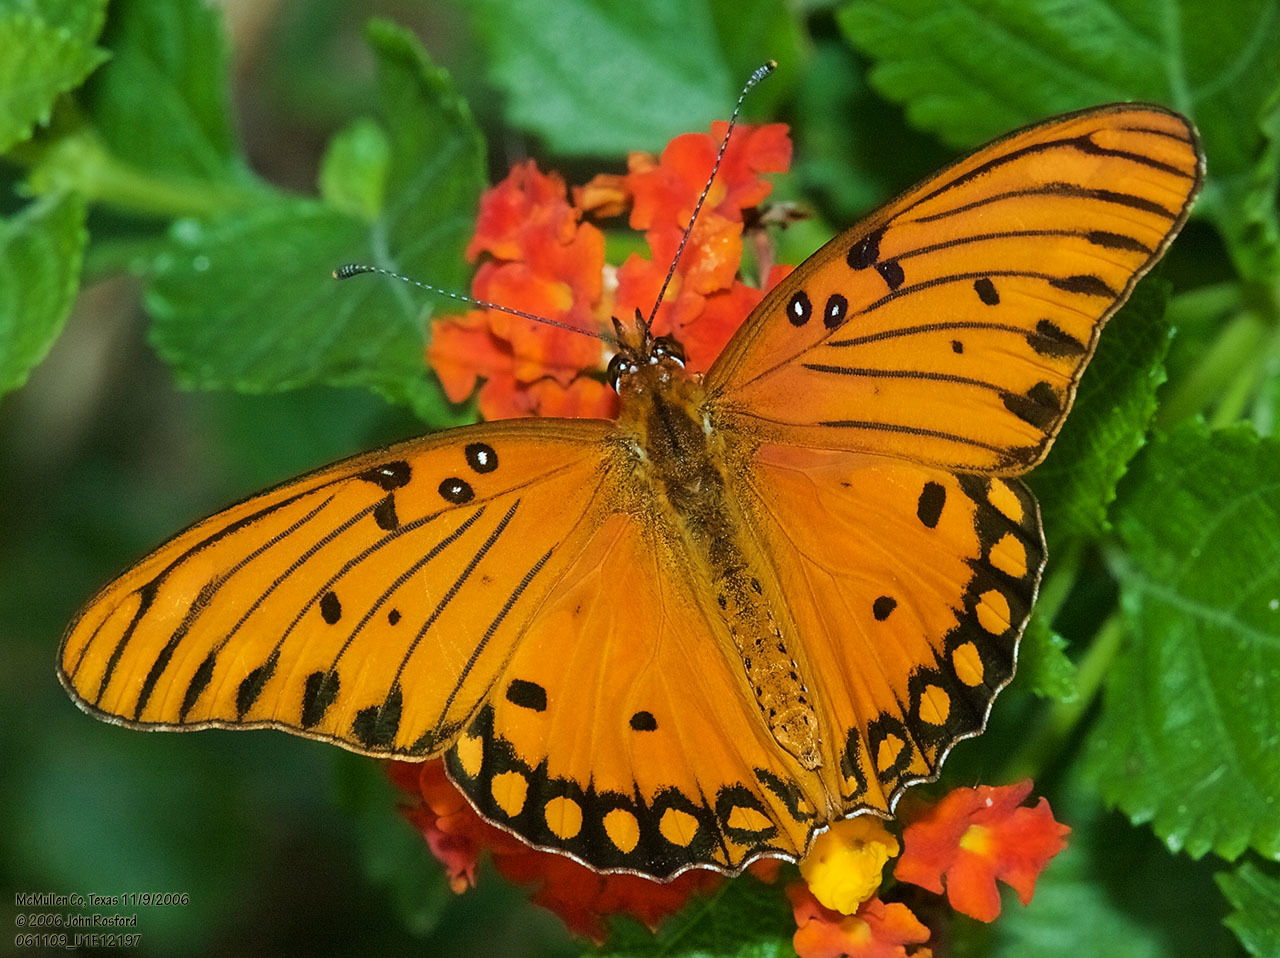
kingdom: Animalia
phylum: Arthropoda
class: Insecta
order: Lepidoptera
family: Nymphalidae
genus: Dione
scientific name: Dione vanillae
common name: Gulf fritillary
